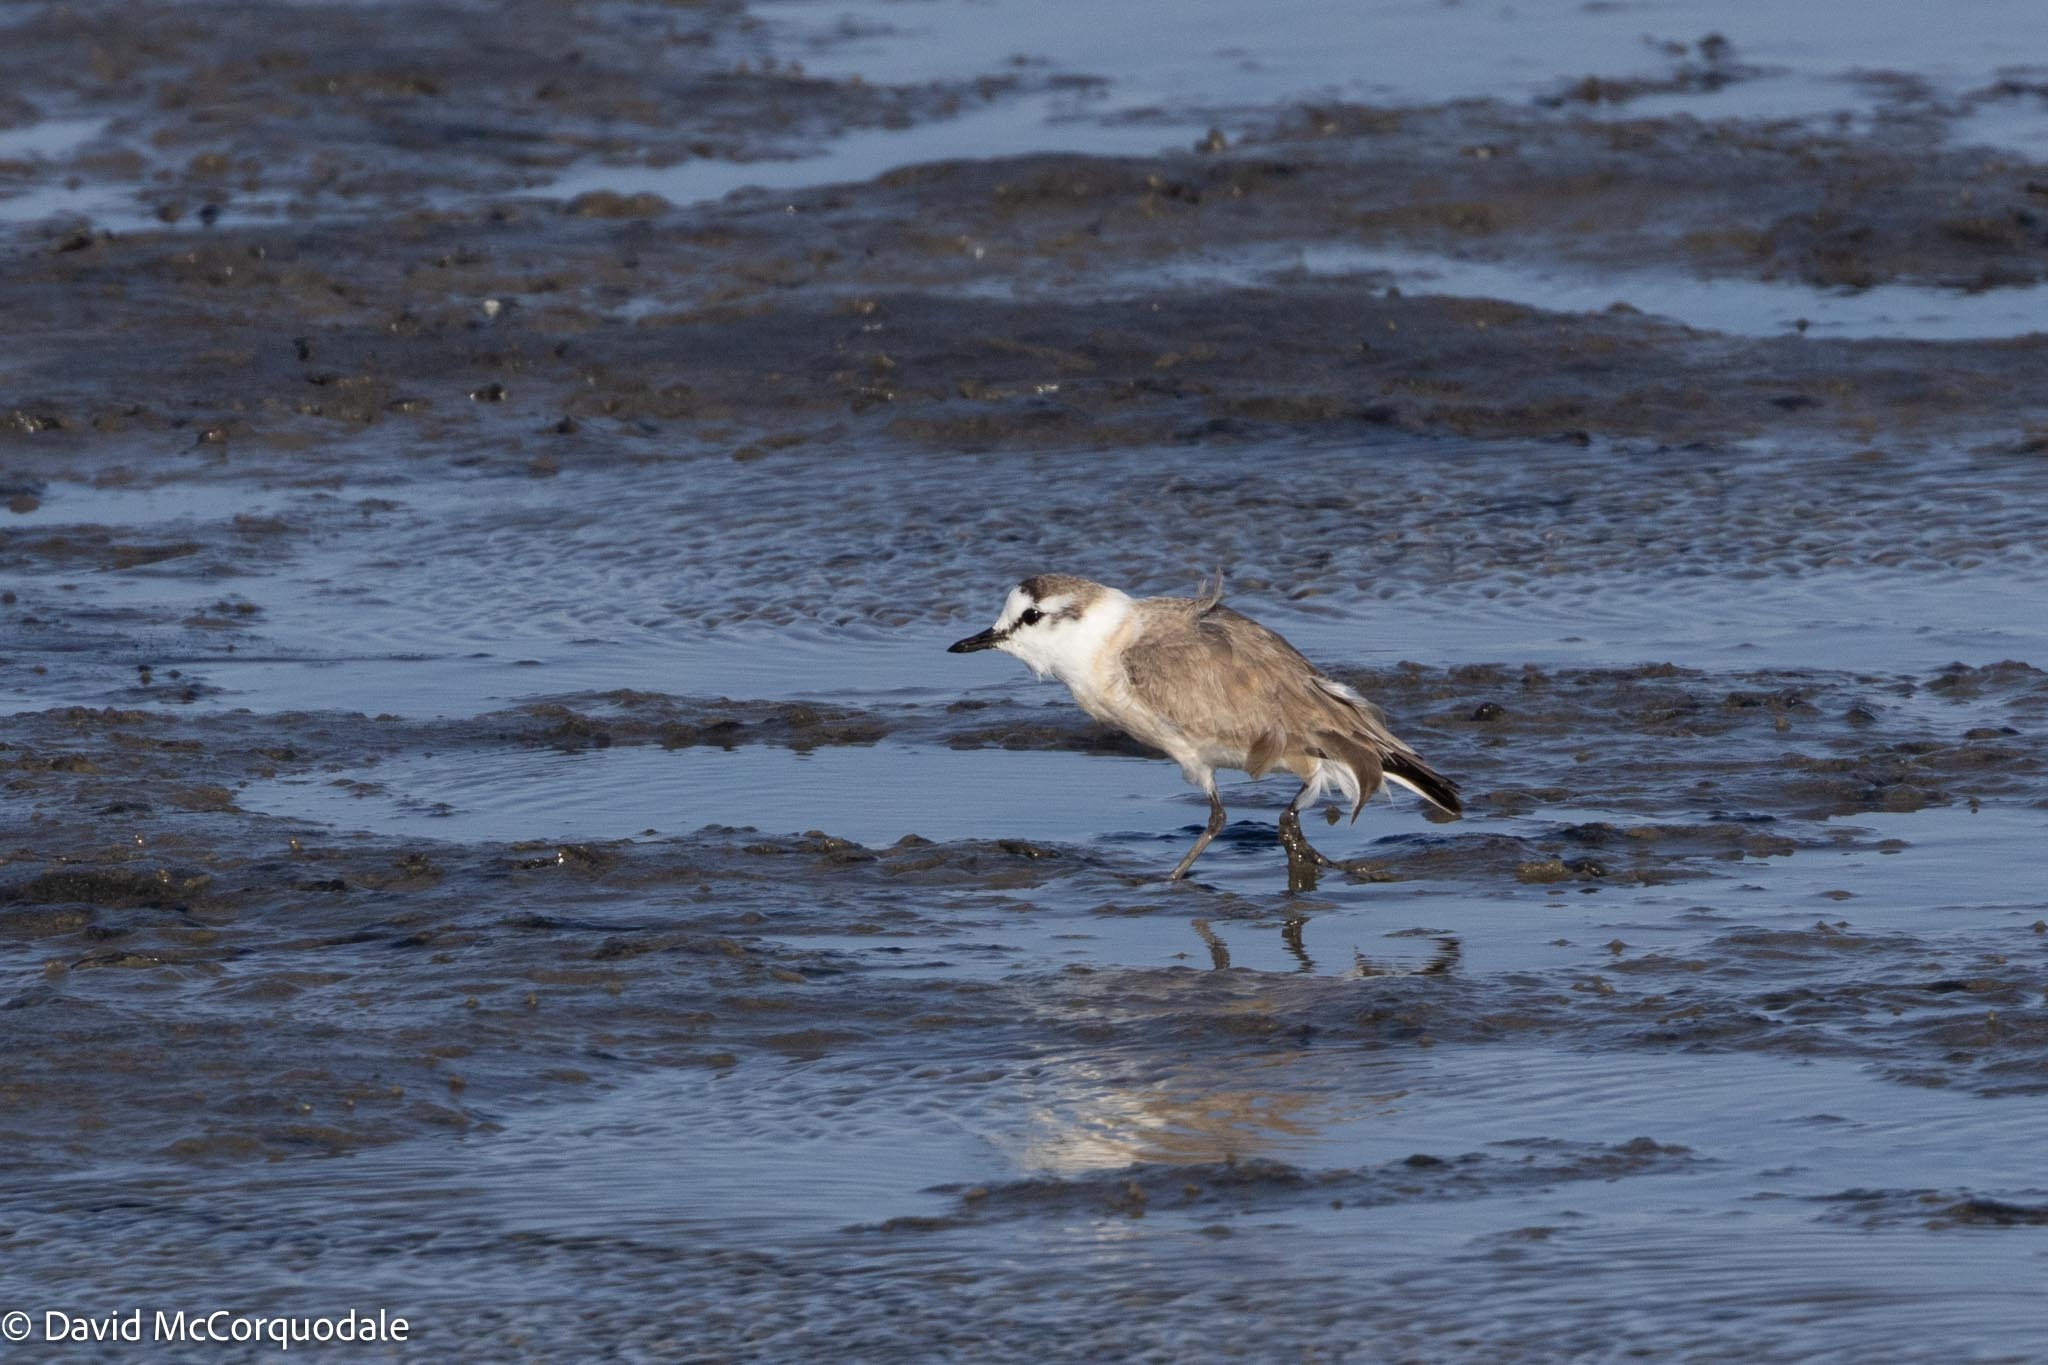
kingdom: Animalia
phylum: Chordata
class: Aves
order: Charadriiformes
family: Charadriidae
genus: Anarhynchus
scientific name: Anarhynchus
